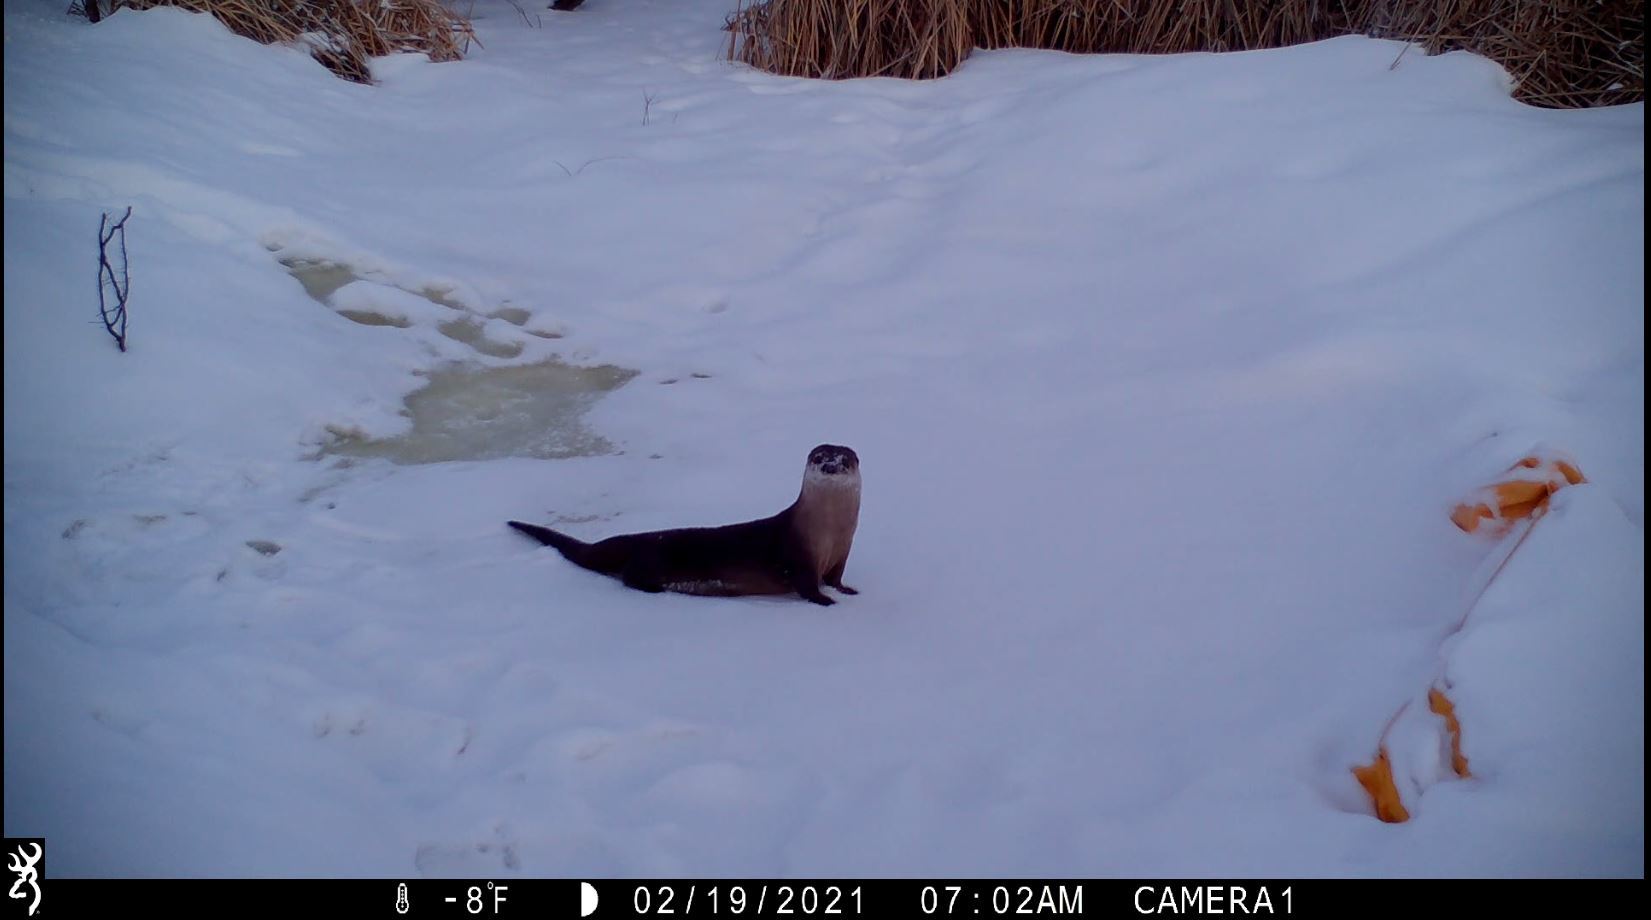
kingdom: Animalia
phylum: Chordata
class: Mammalia
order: Carnivora
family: Mustelidae
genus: Lontra
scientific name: Lontra canadensis
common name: North american river otter
